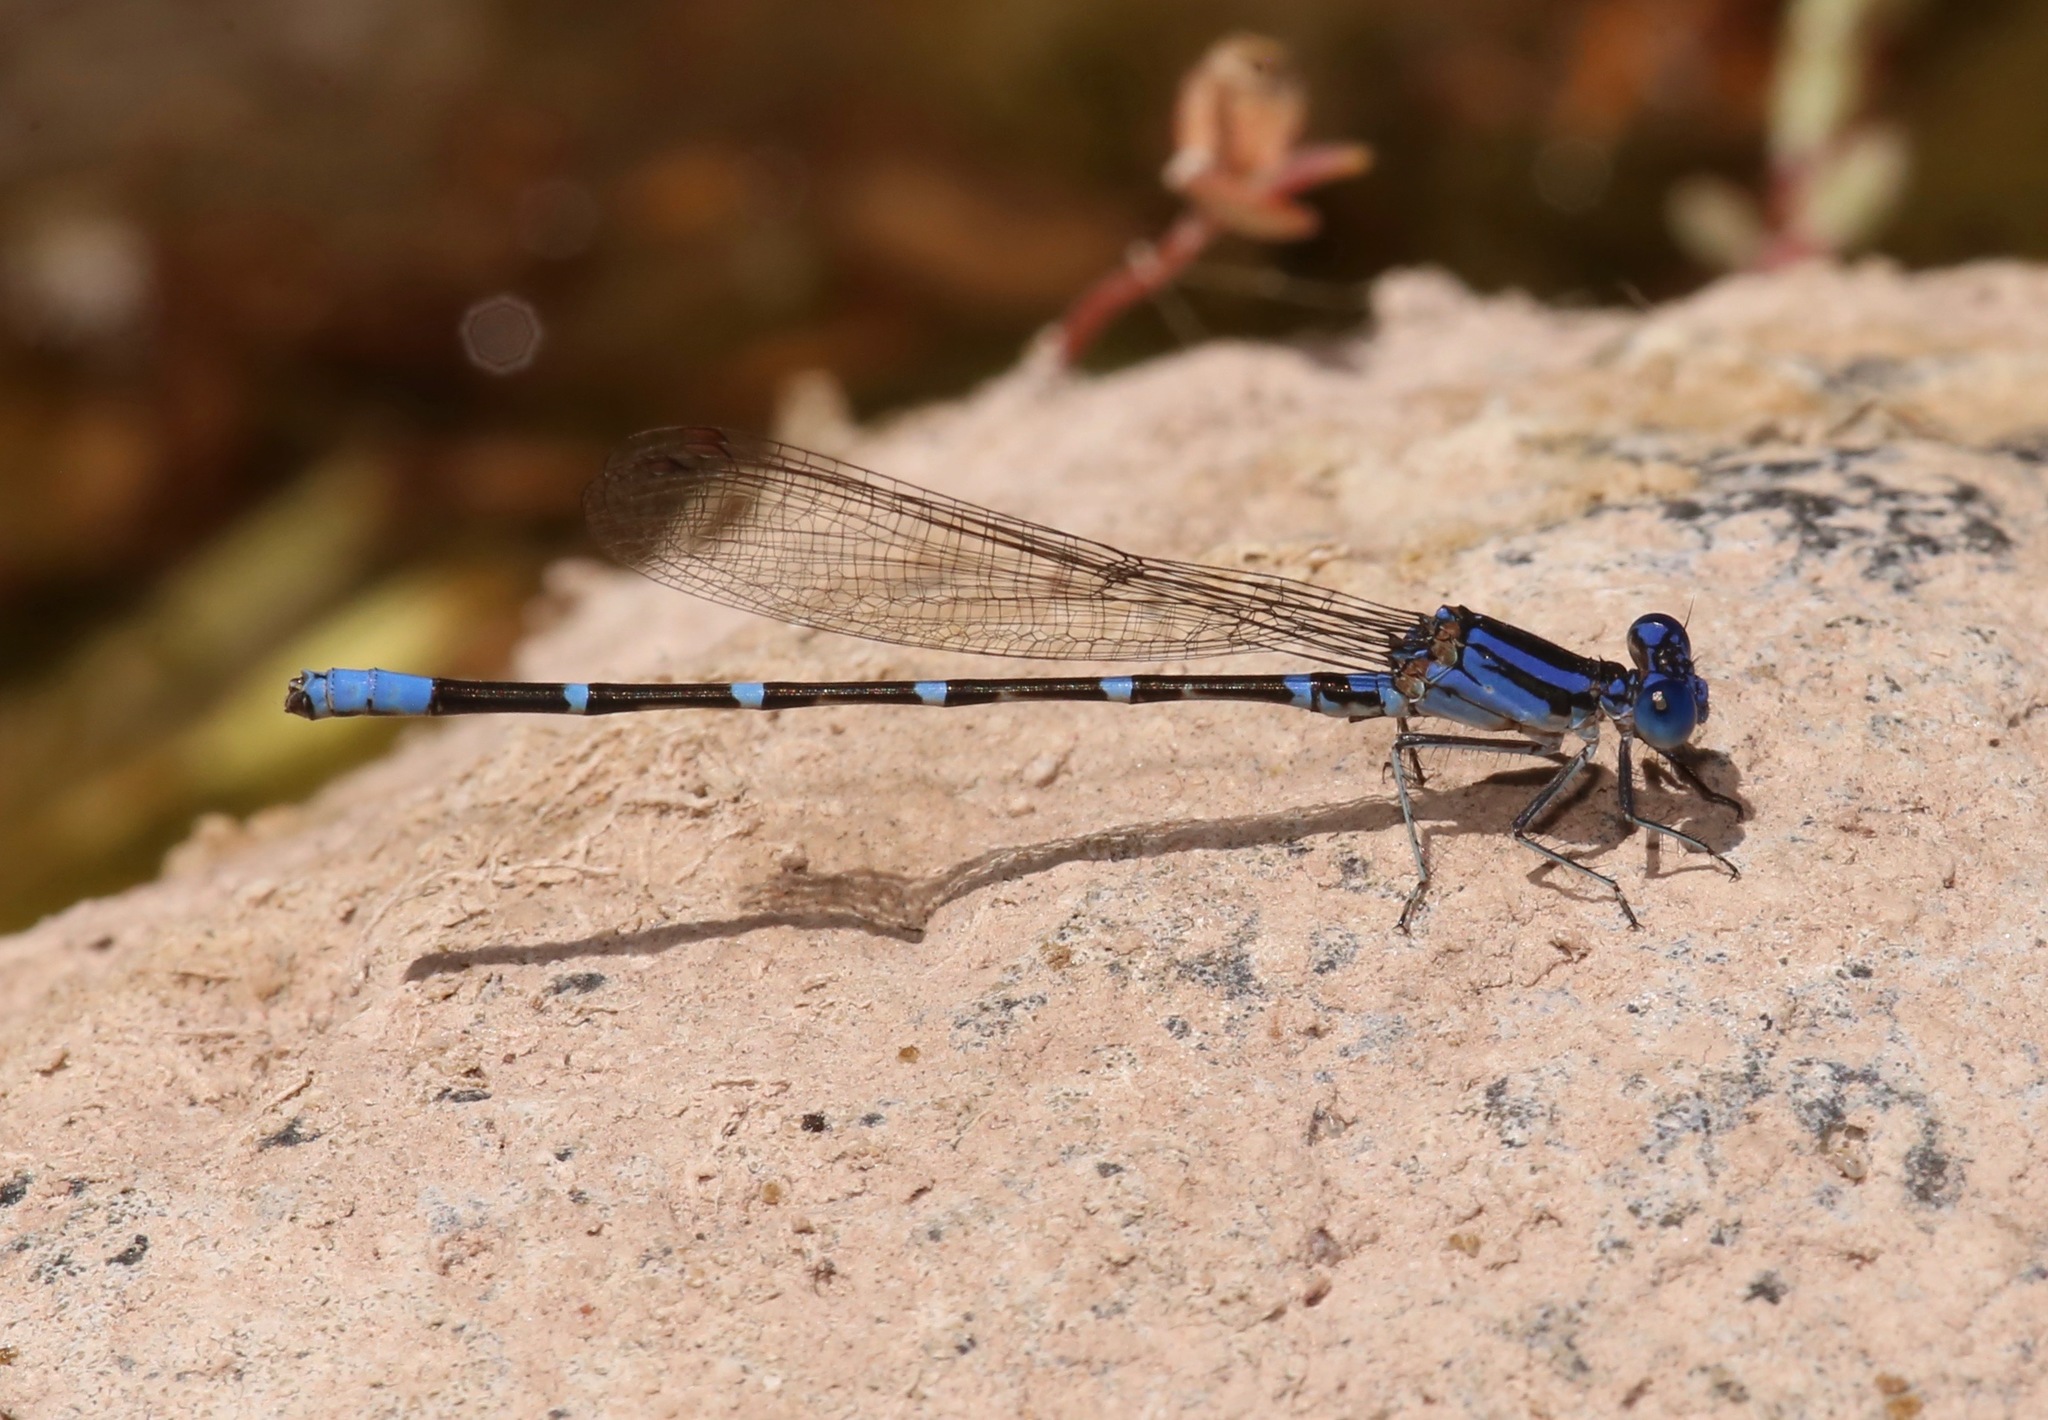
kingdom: Animalia
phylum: Arthropoda
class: Insecta
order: Odonata
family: Coenagrionidae
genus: Argia
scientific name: Argia sedula
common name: Blue-ringed dancer
